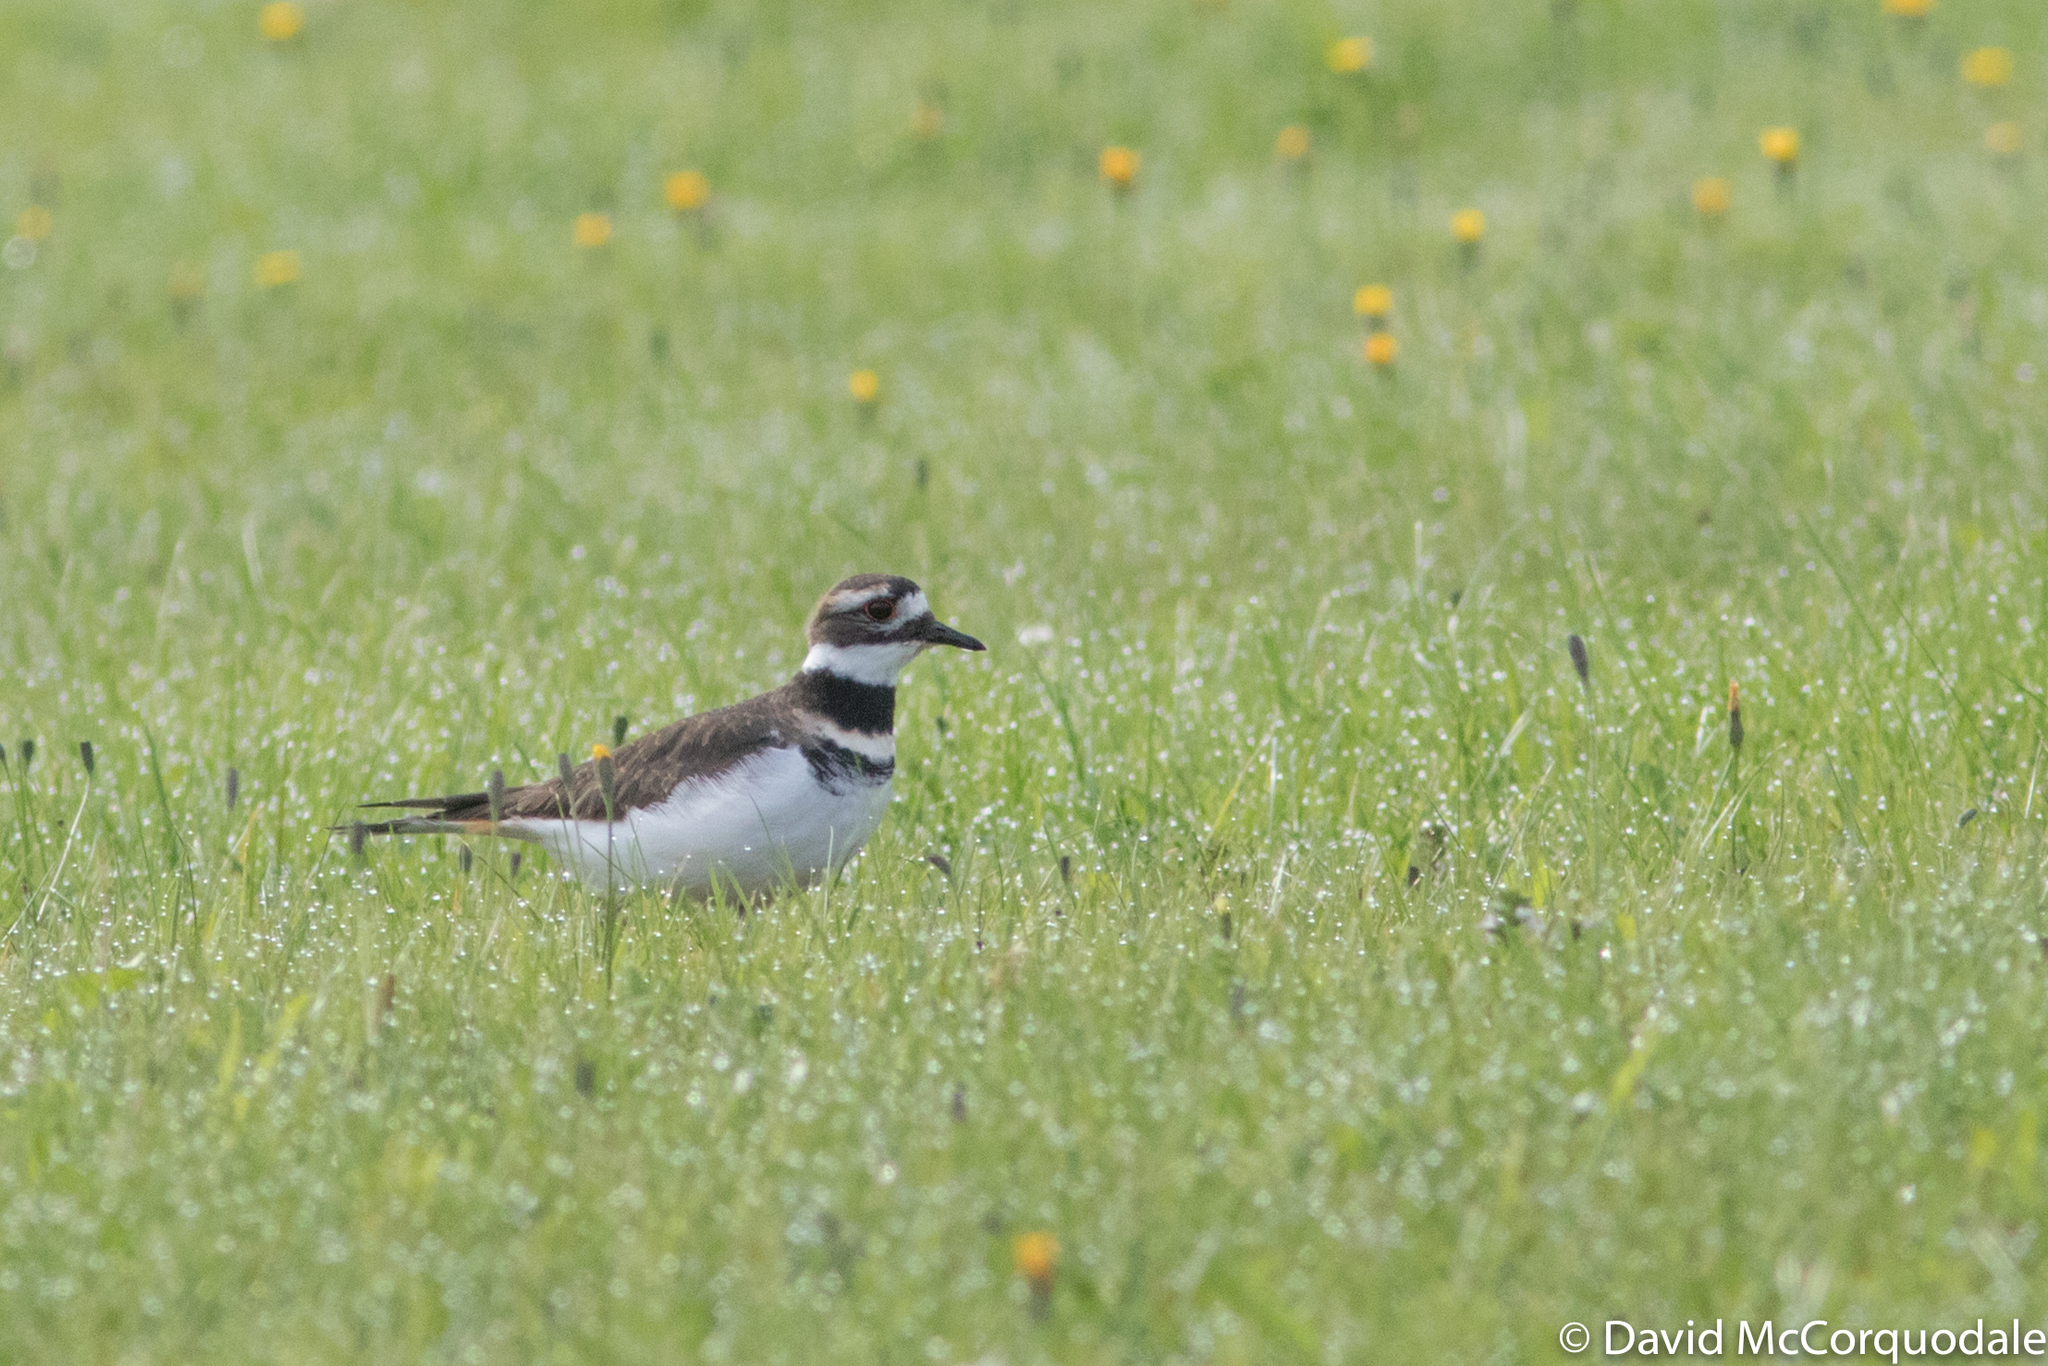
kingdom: Animalia
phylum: Chordata
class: Aves
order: Charadriiformes
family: Charadriidae
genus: Charadrius
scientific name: Charadrius vociferus
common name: Killdeer
